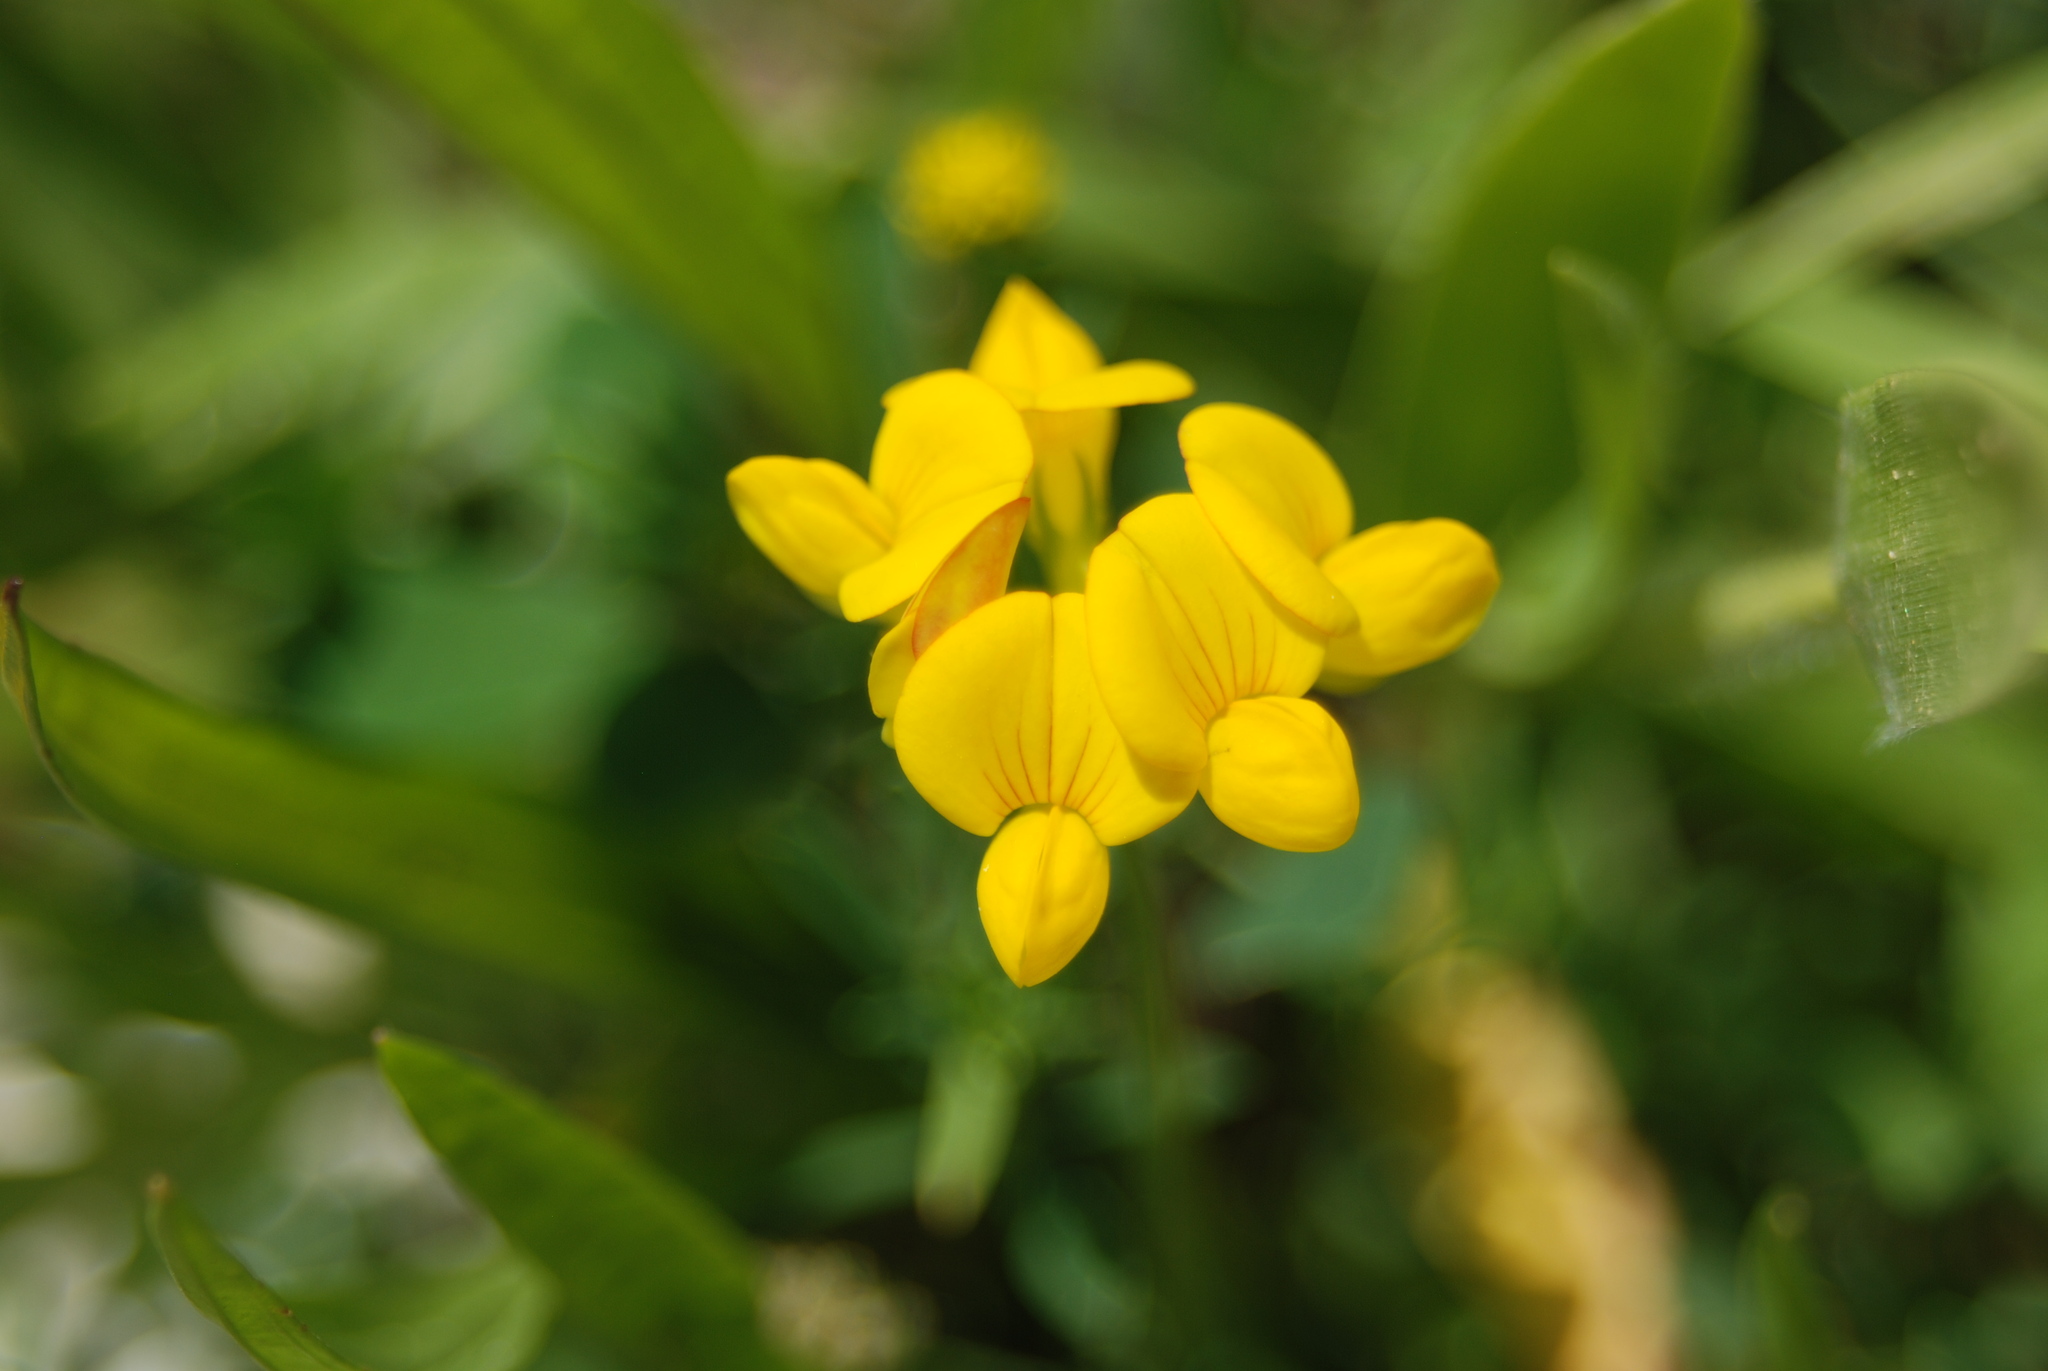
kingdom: Plantae
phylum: Tracheophyta
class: Magnoliopsida
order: Fabales
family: Fabaceae
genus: Lotus
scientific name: Lotus corniculatus
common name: Common bird's-foot-trefoil
